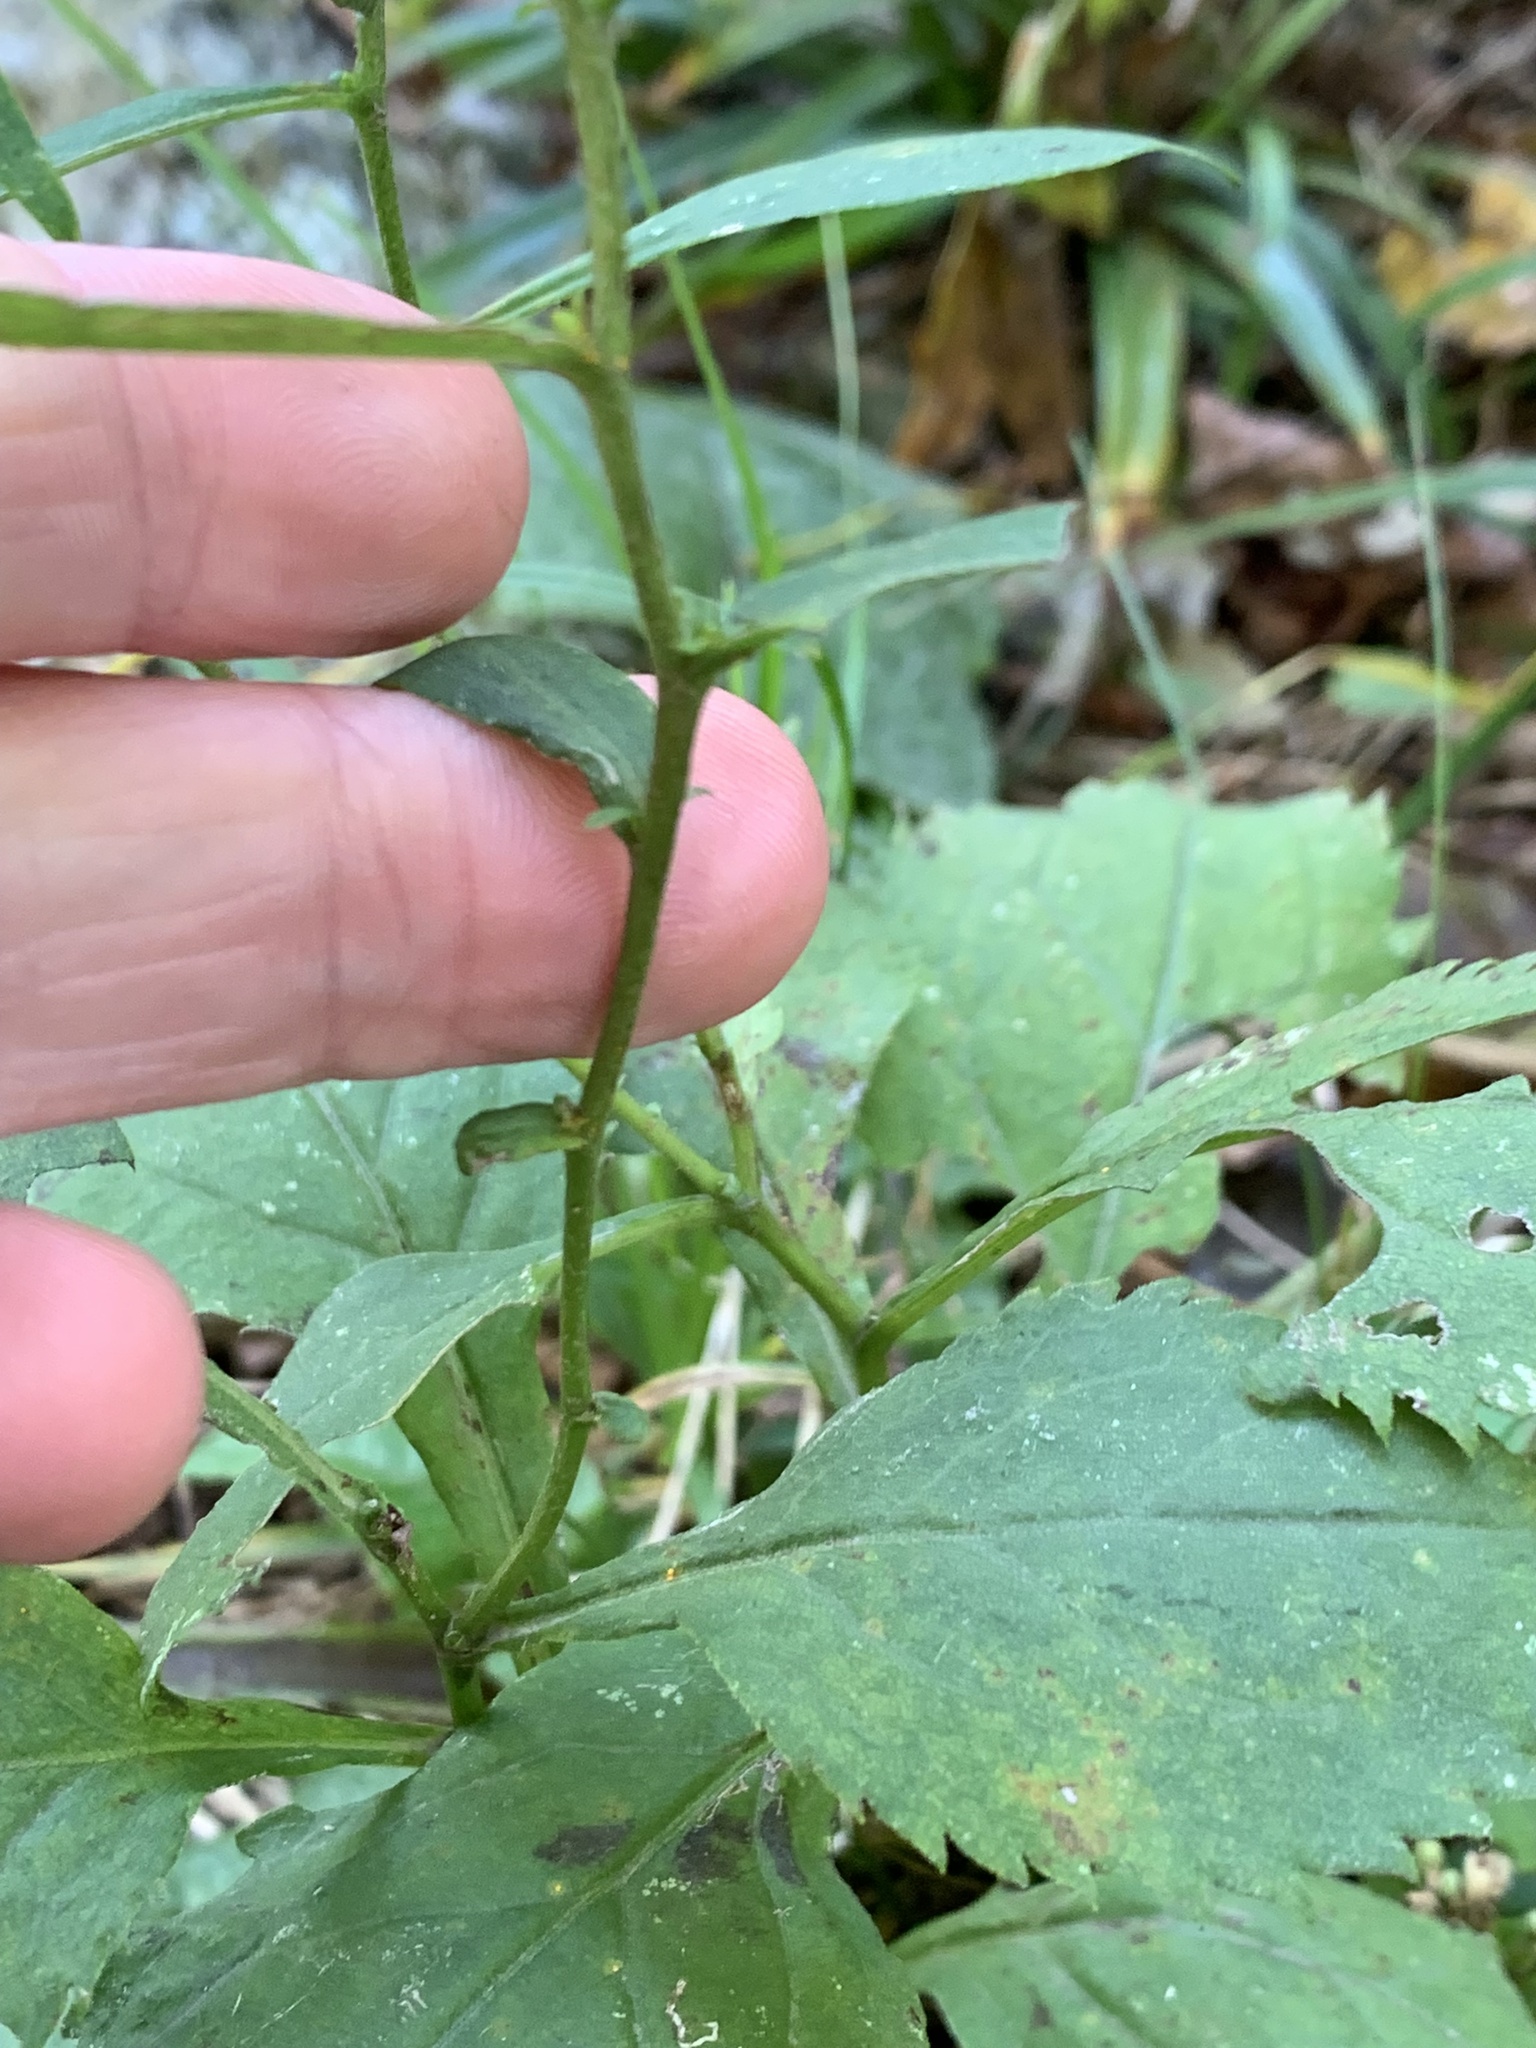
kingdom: Plantae
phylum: Tracheophyta
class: Magnoliopsida
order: Asterales
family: Asteraceae
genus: Solidago
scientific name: Solidago flexicaulis
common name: Zig-zag goldenrod
